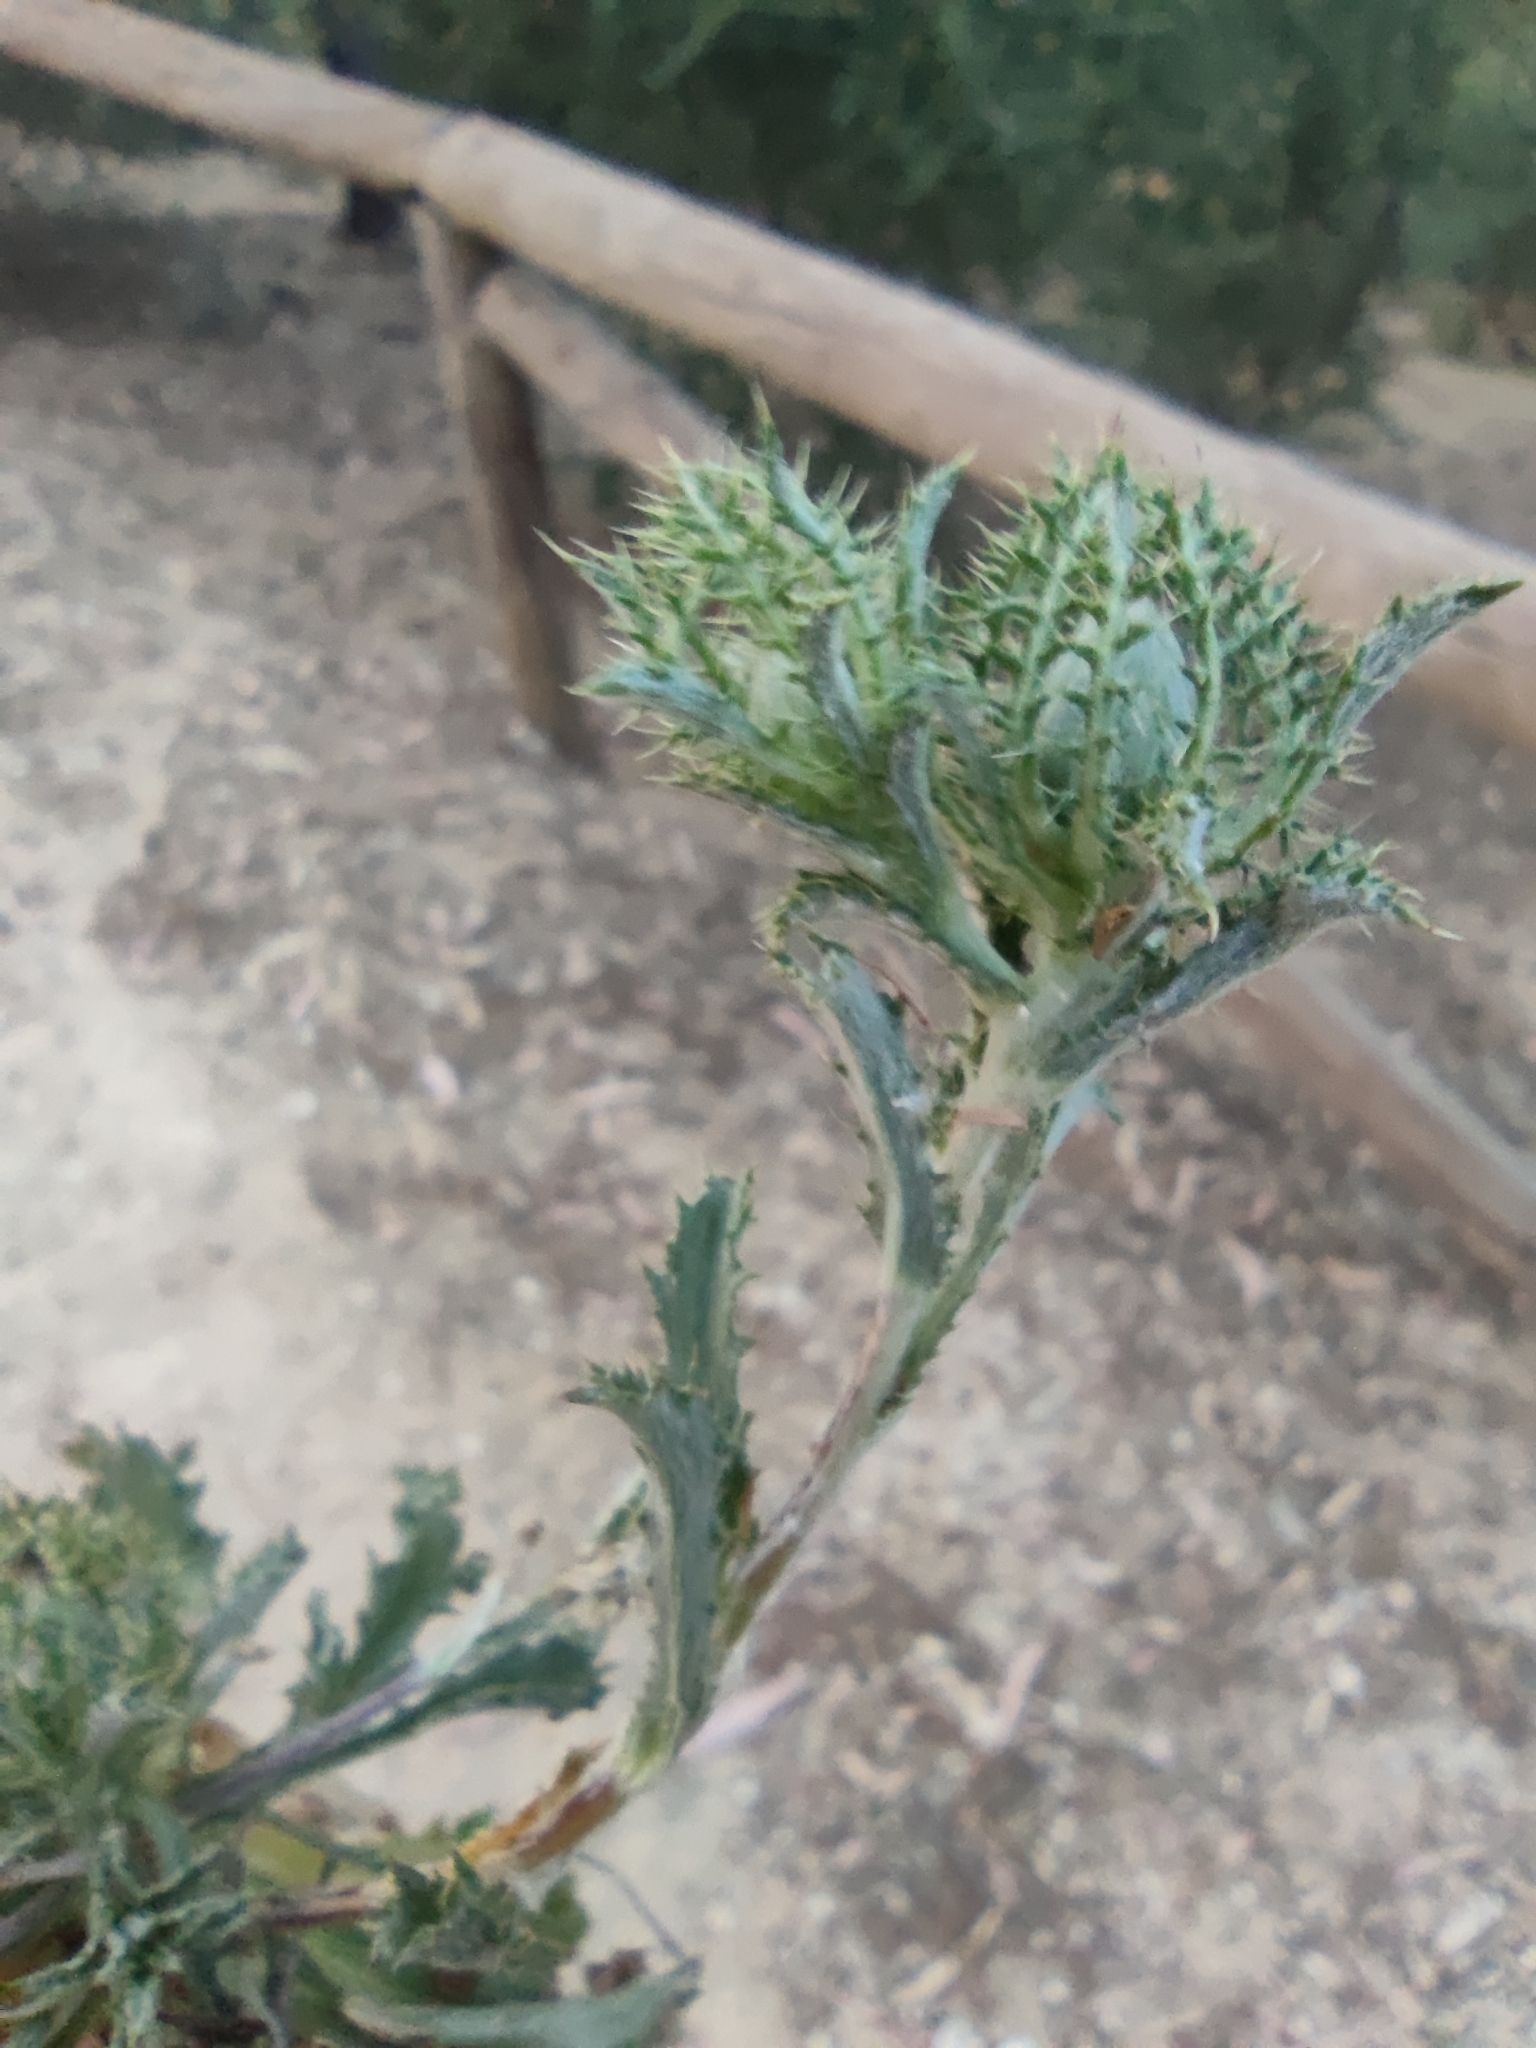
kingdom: Plantae
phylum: Tracheophyta
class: Magnoliopsida
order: Asterales
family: Asteraceae
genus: Atractylis
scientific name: Atractylis cancellata
